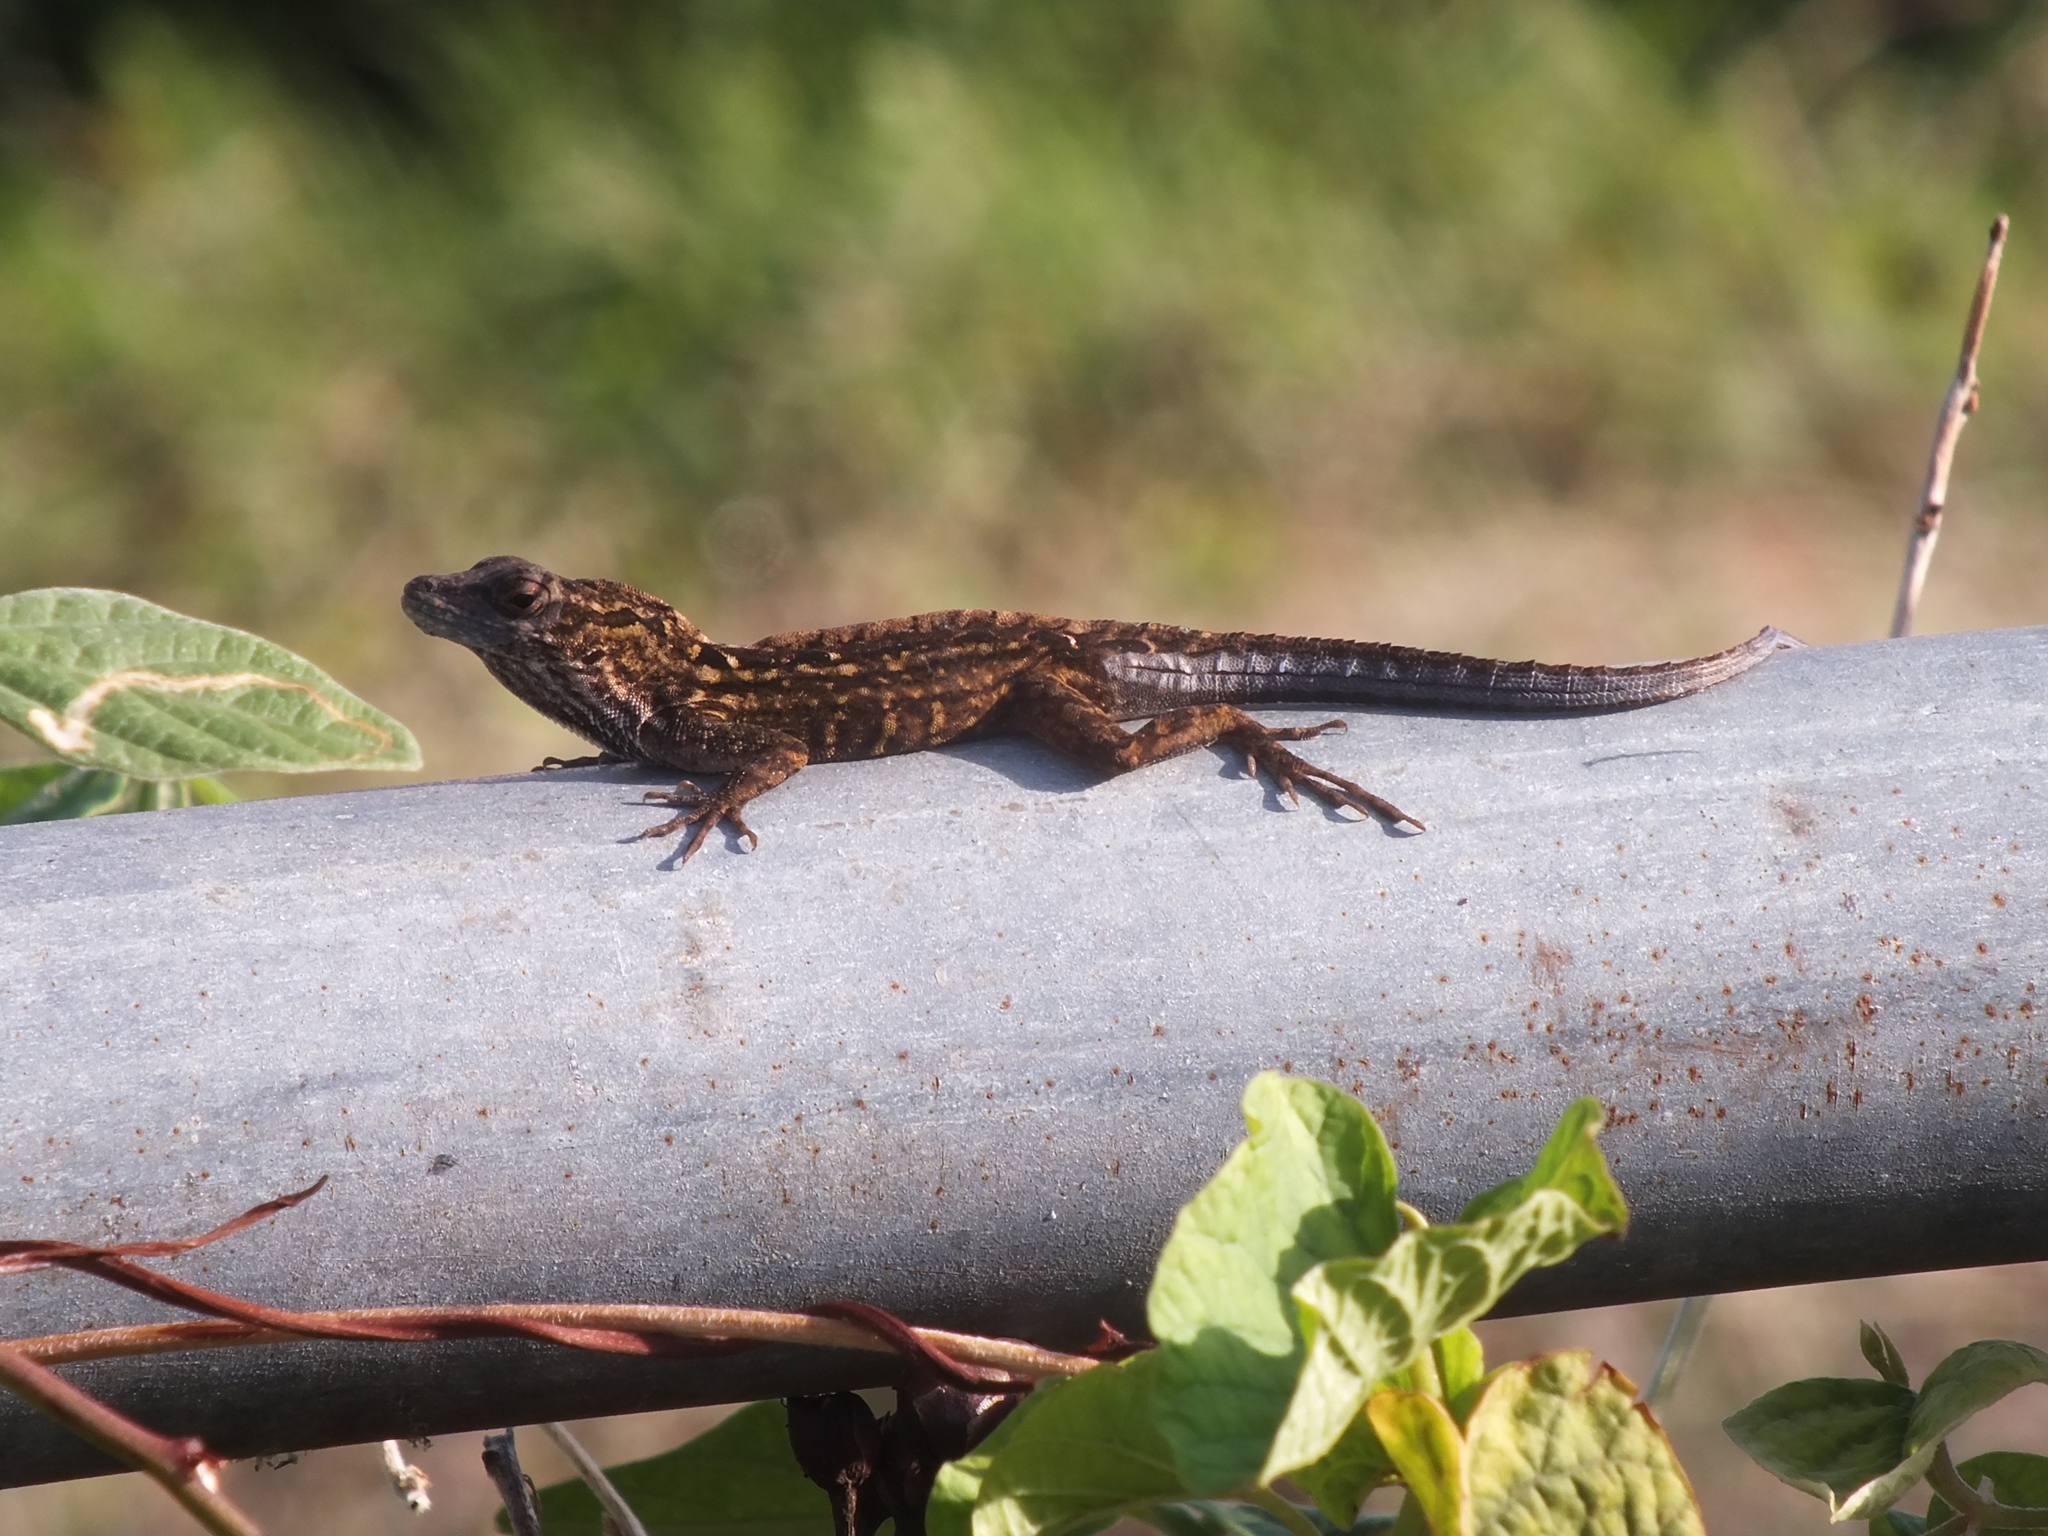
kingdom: Animalia
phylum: Chordata
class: Squamata
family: Dactyloidae
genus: Anolis
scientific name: Anolis sagrei
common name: Brown anole
